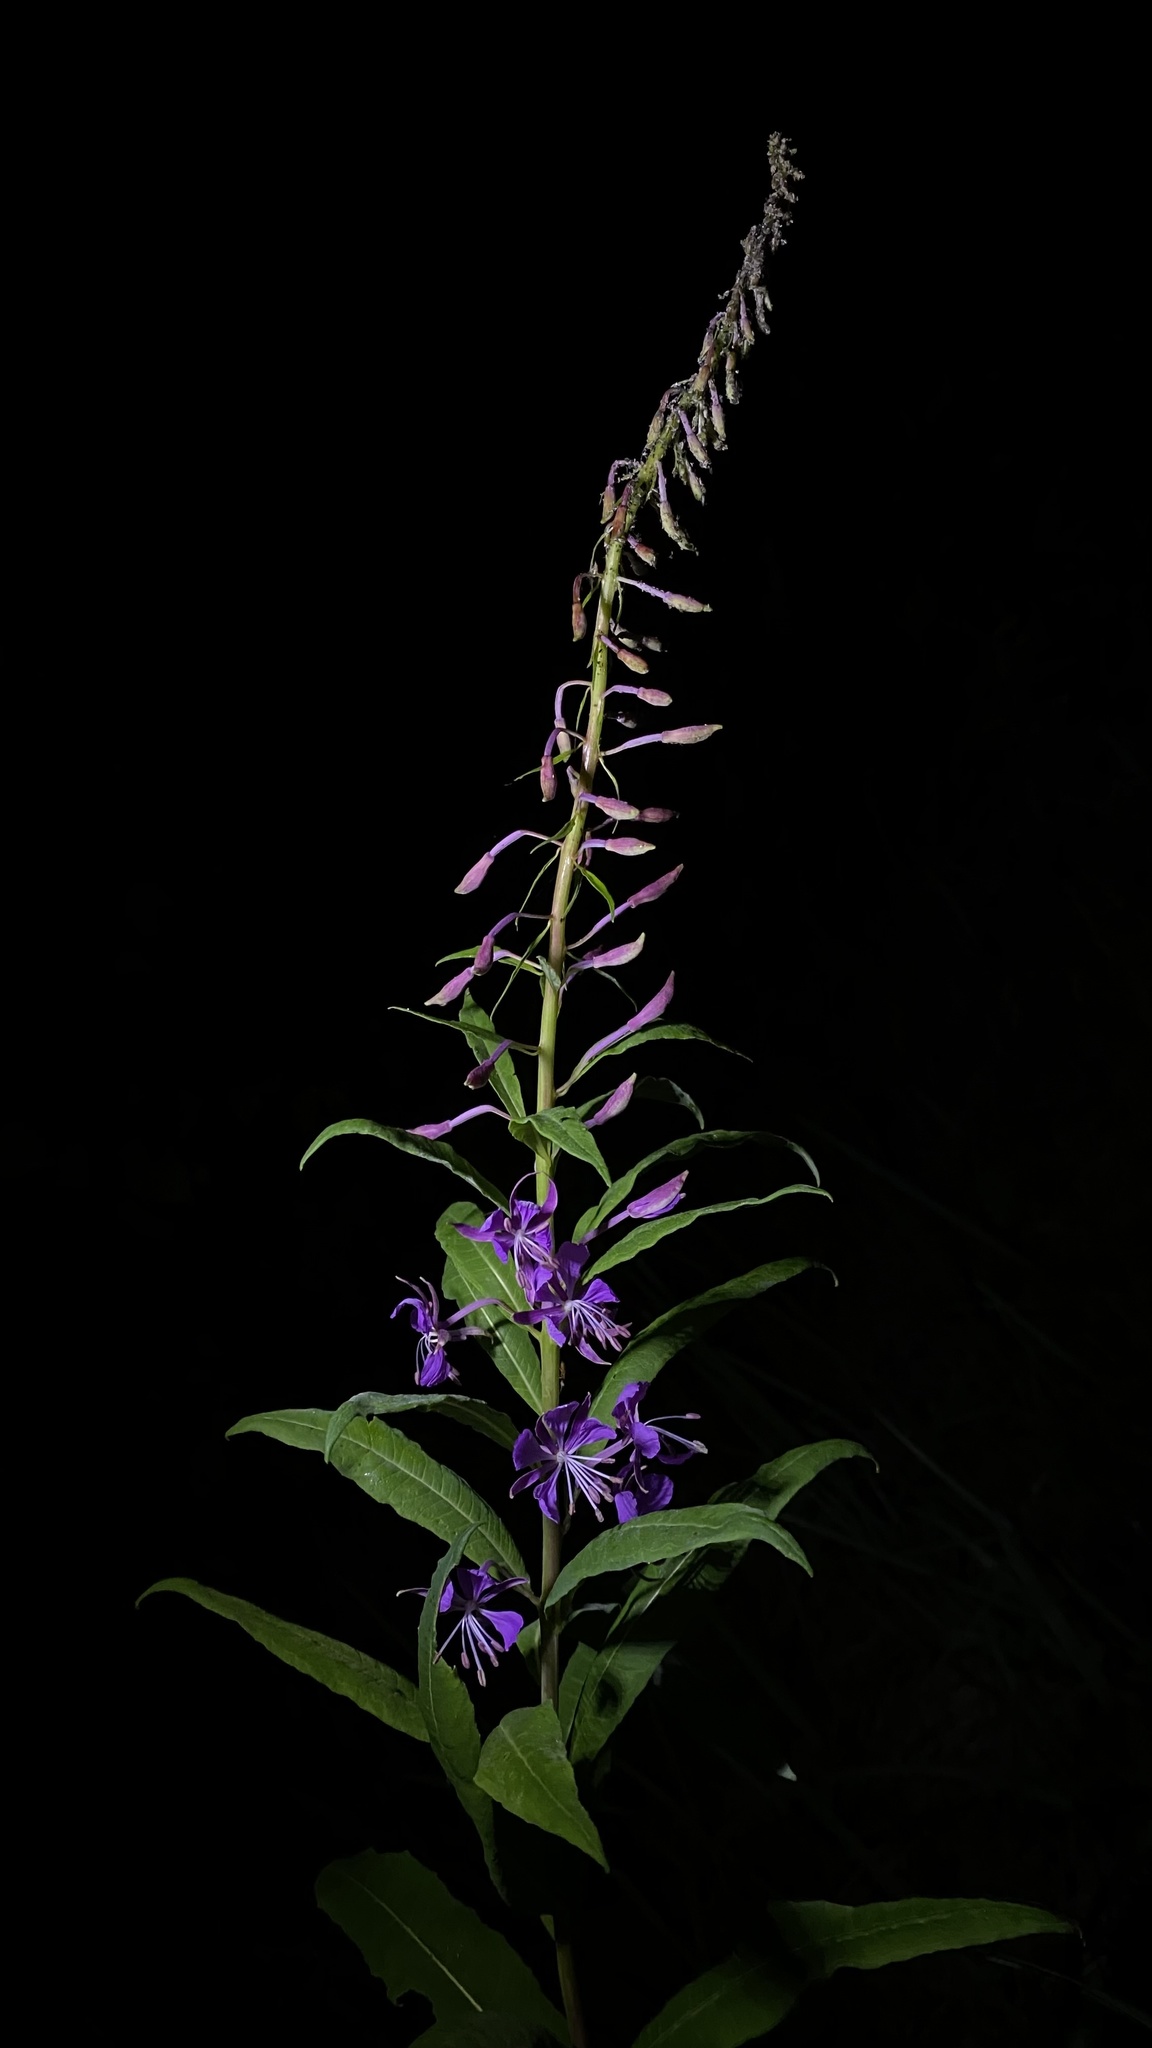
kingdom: Plantae
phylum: Tracheophyta
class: Magnoliopsida
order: Myrtales
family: Onagraceae
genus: Chamaenerion
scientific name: Chamaenerion angustifolium
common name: Fireweed
